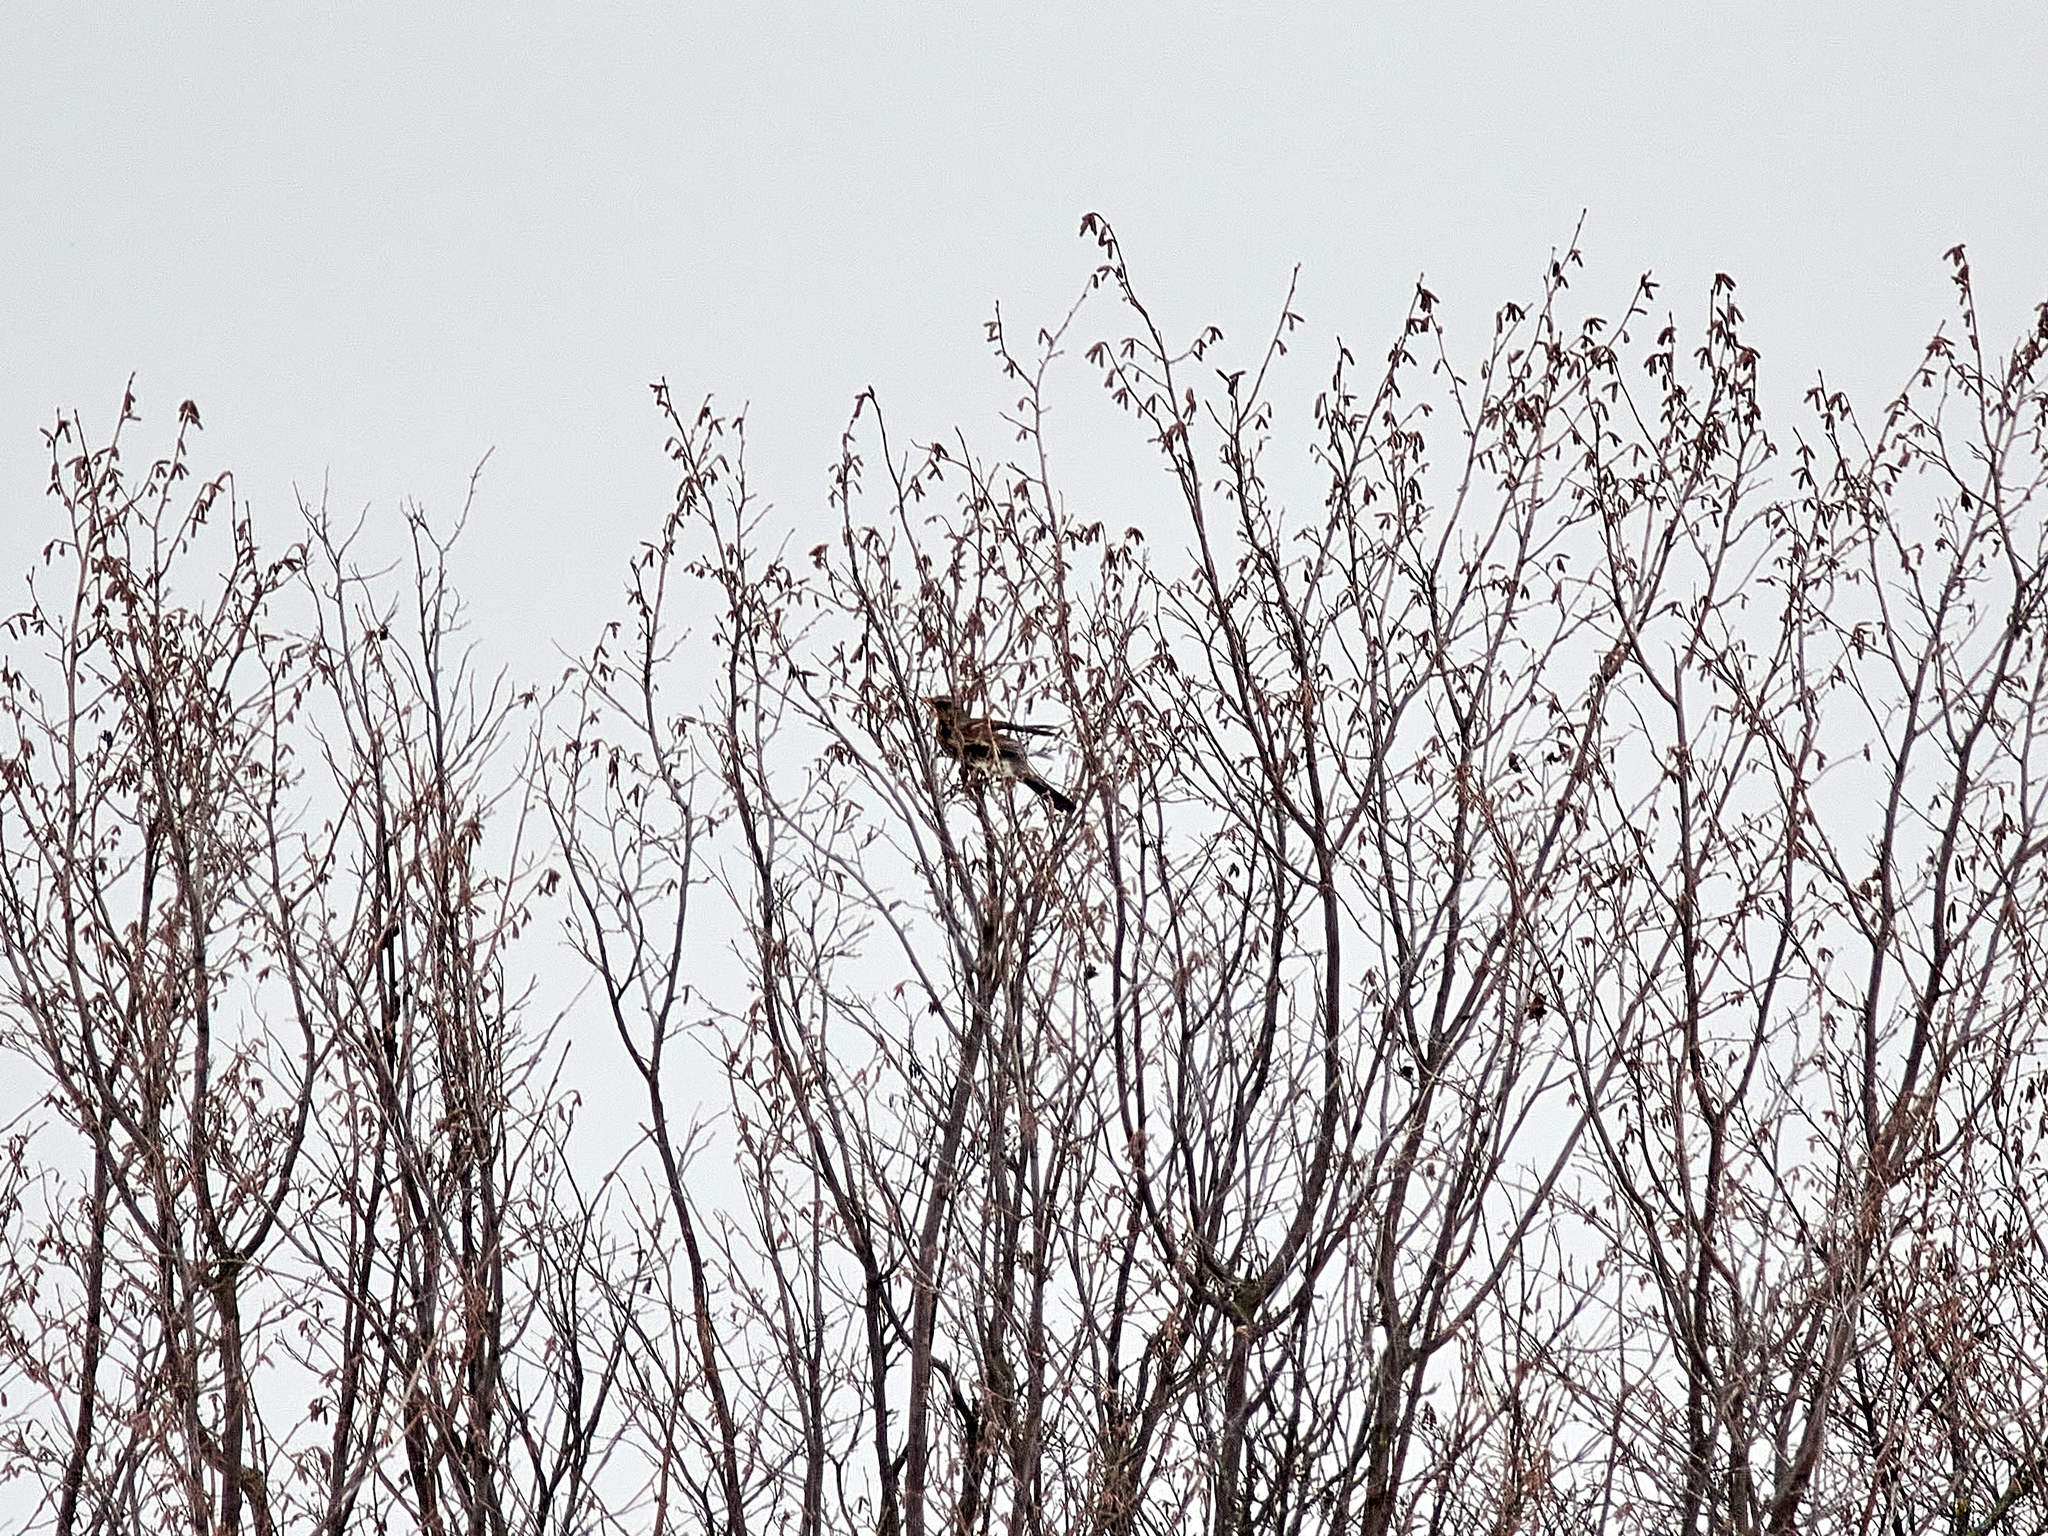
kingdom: Animalia
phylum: Chordata
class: Aves
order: Passeriformes
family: Turdidae
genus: Turdus
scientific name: Turdus pilaris
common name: Fieldfare
